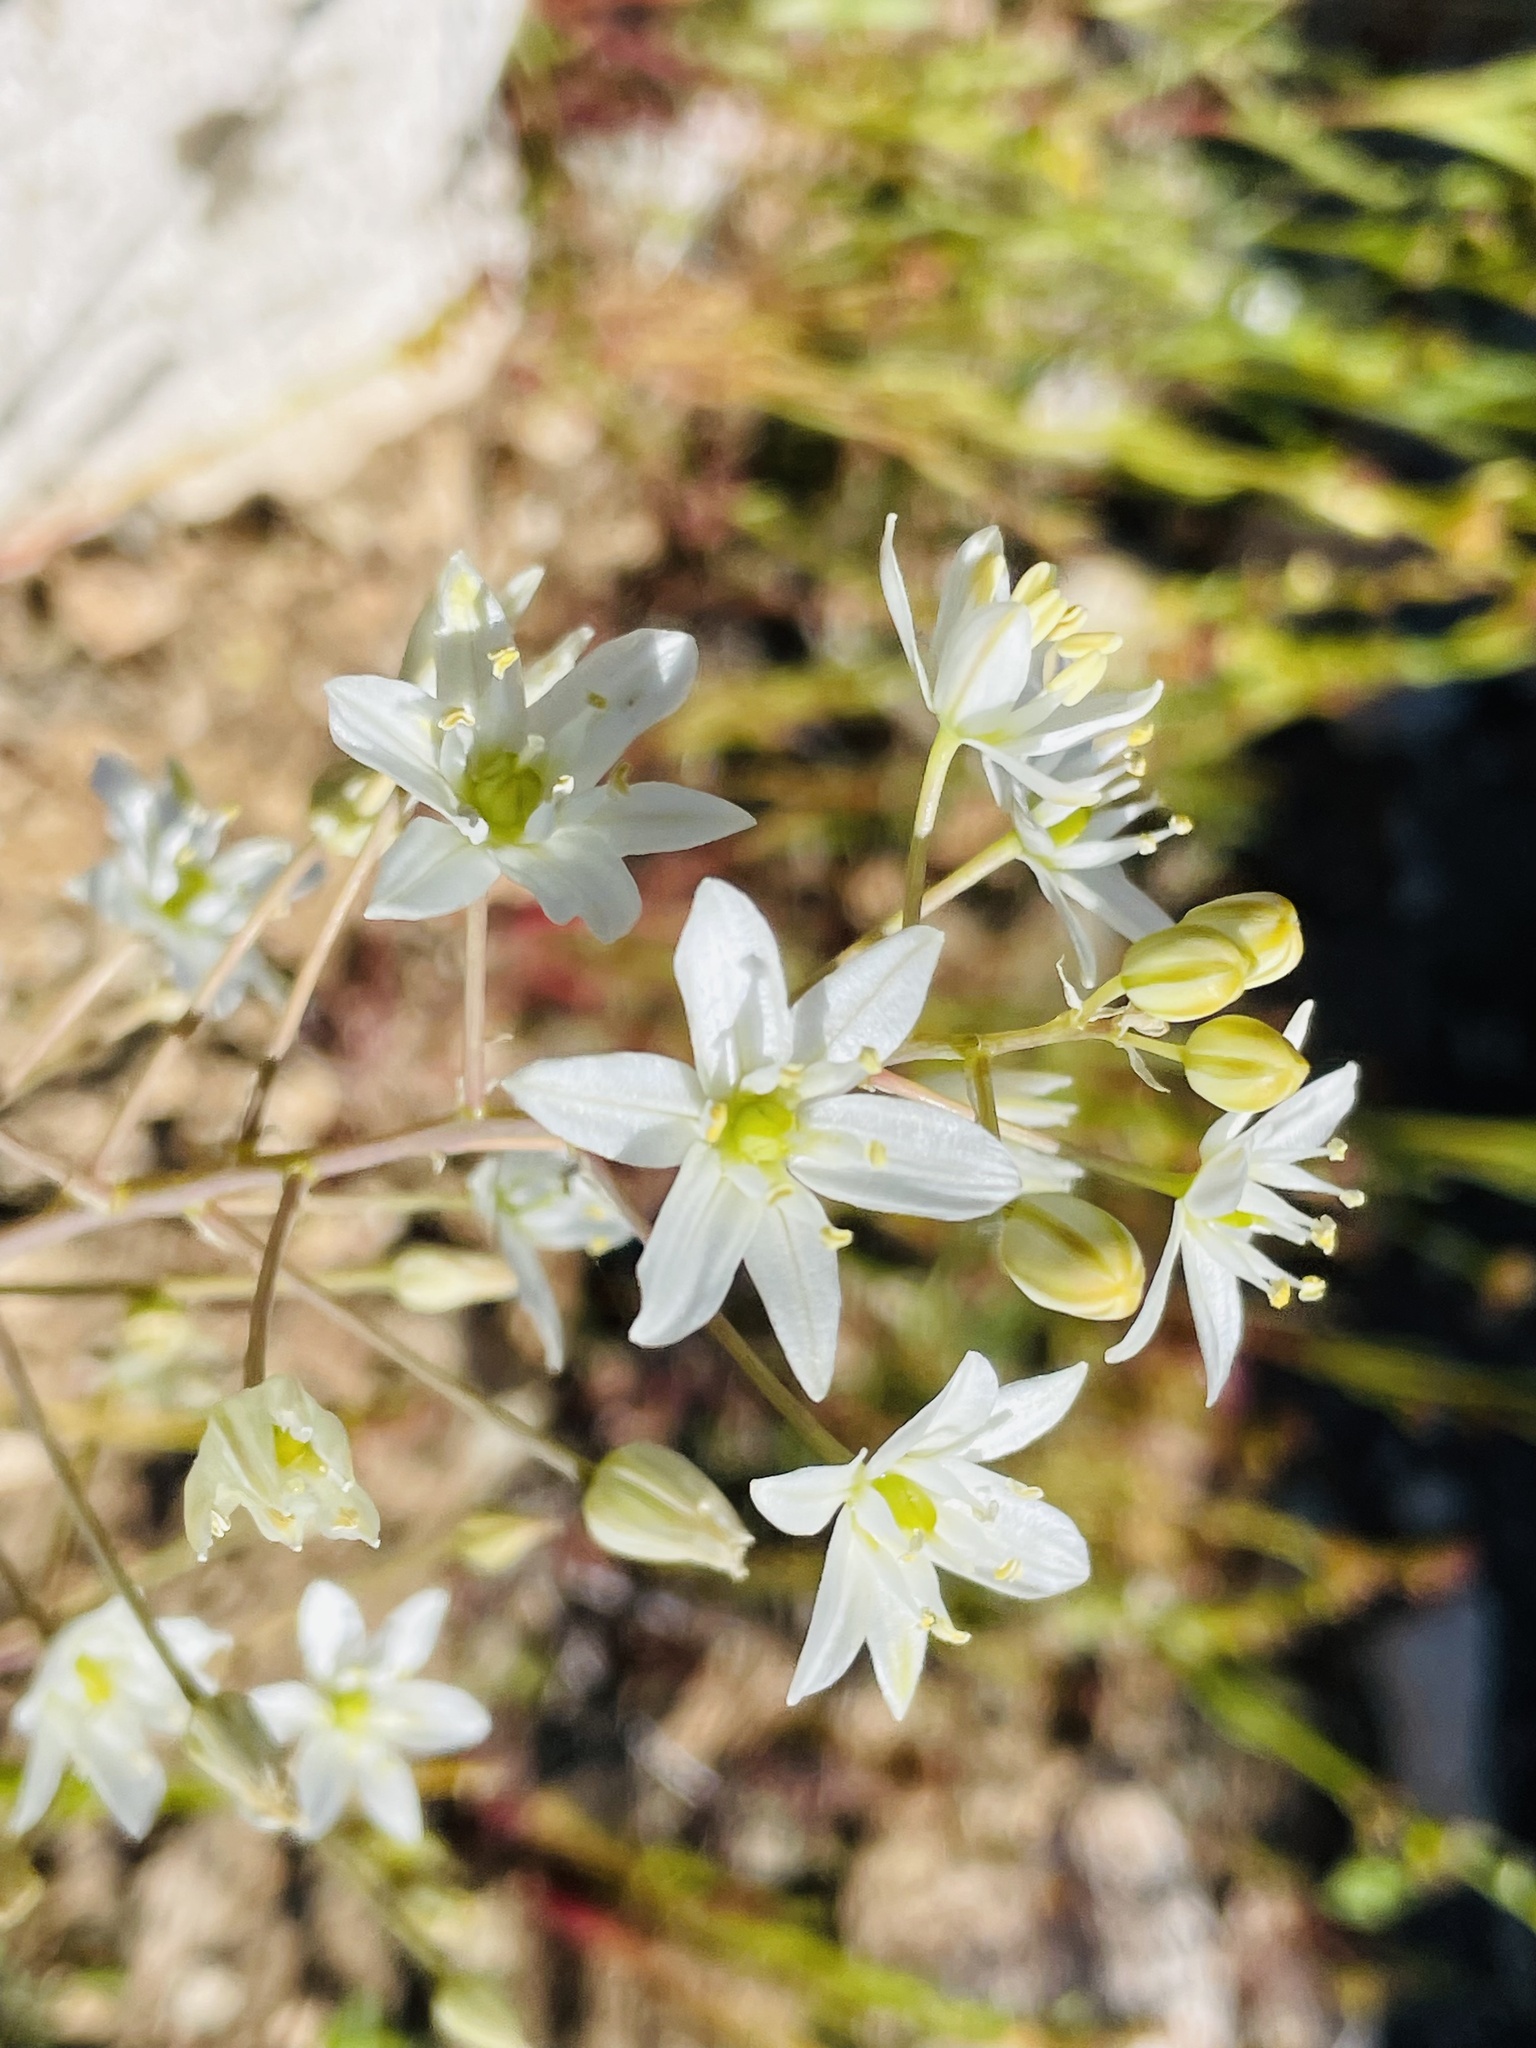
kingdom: Plantae
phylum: Tracheophyta
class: Liliopsida
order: Asparagales
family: Asparagaceae
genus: Oziroe
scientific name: Oziroe biflora
